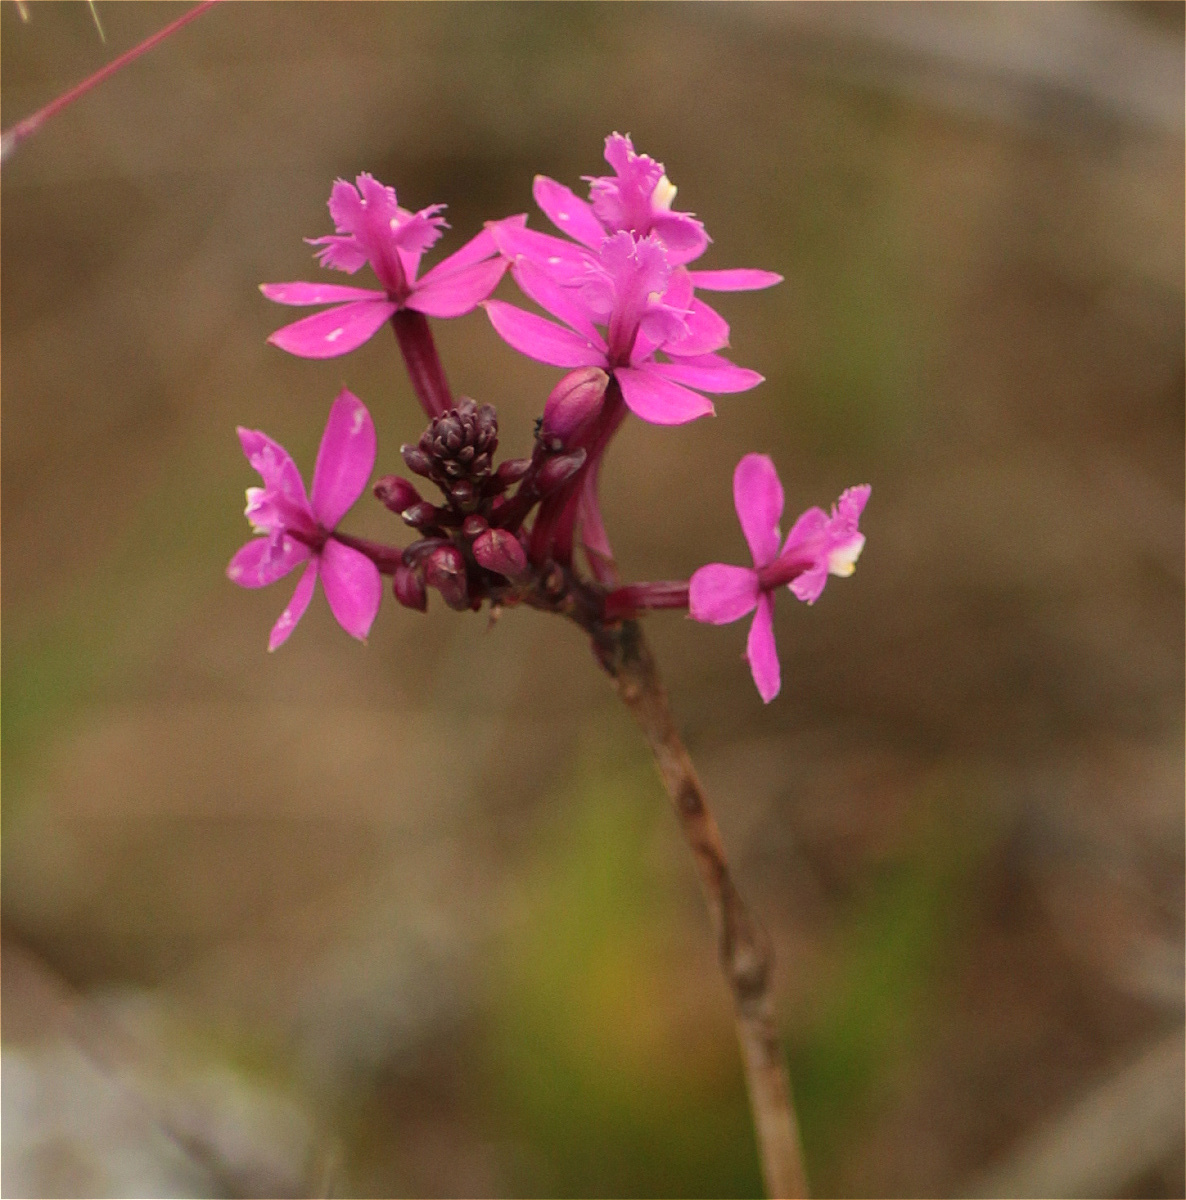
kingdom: Plantae
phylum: Tracheophyta
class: Liliopsida
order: Asparagales
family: Orchidaceae
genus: Epidendrum
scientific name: Epidendrum arachnoglossum
